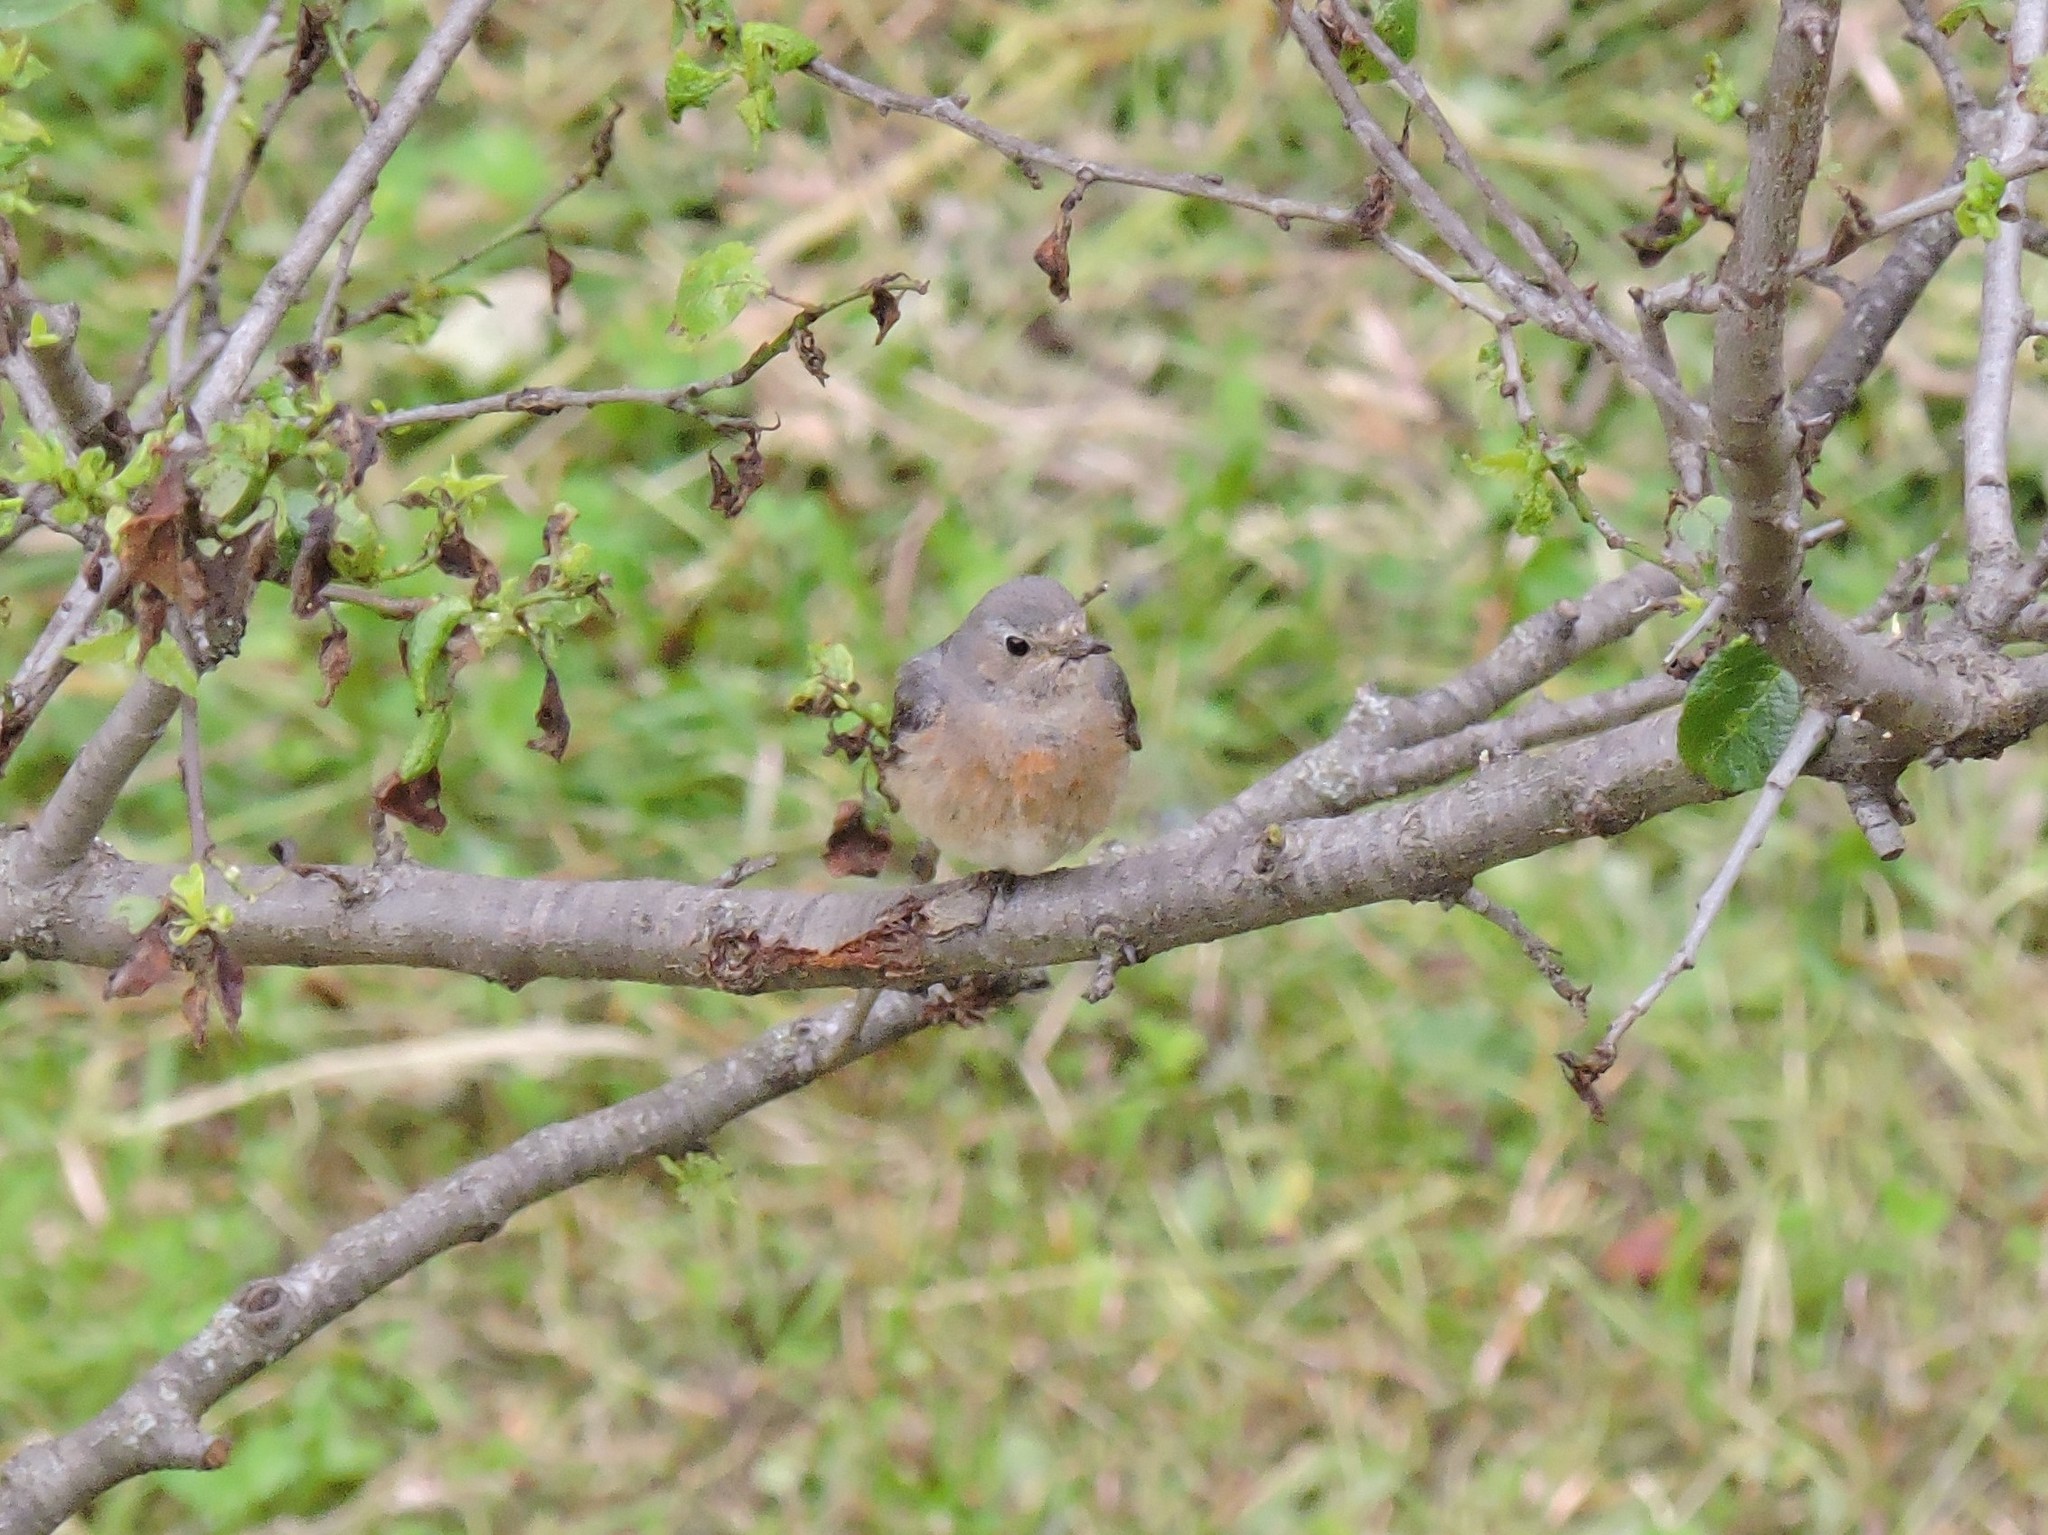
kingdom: Animalia
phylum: Chordata
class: Aves
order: Passeriformes
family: Muscicapidae
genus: Phoenicurus
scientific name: Phoenicurus phoenicurus
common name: Common redstart
